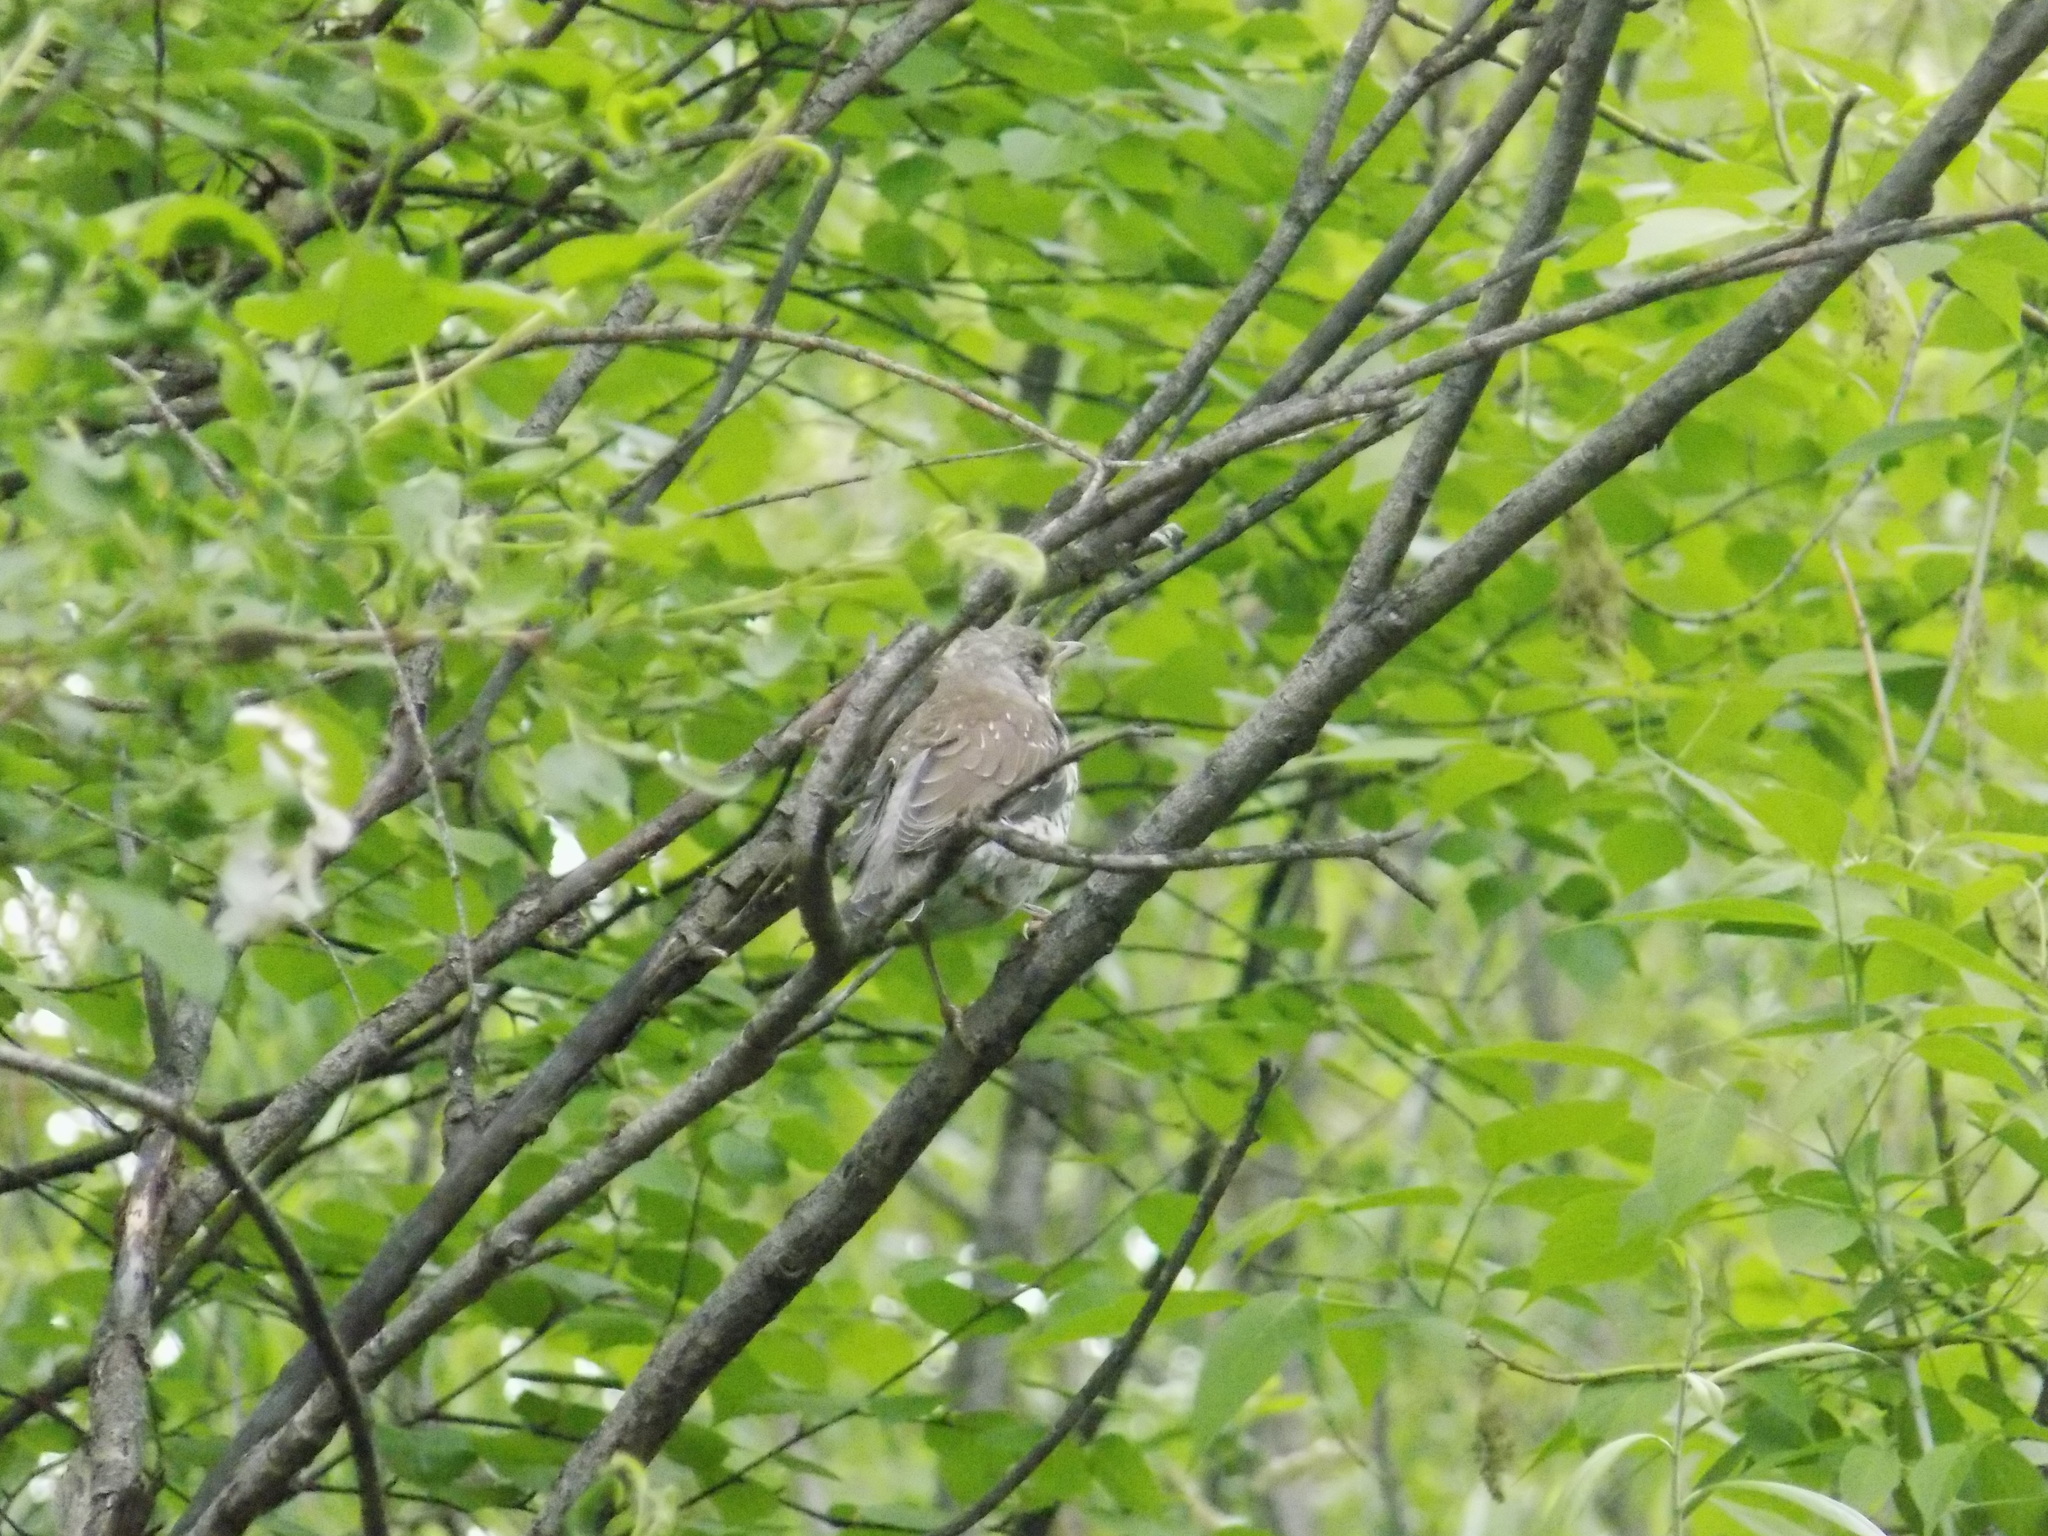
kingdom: Animalia
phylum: Chordata
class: Aves
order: Passeriformes
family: Turdidae
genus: Turdus
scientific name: Turdus pilaris
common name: Fieldfare
